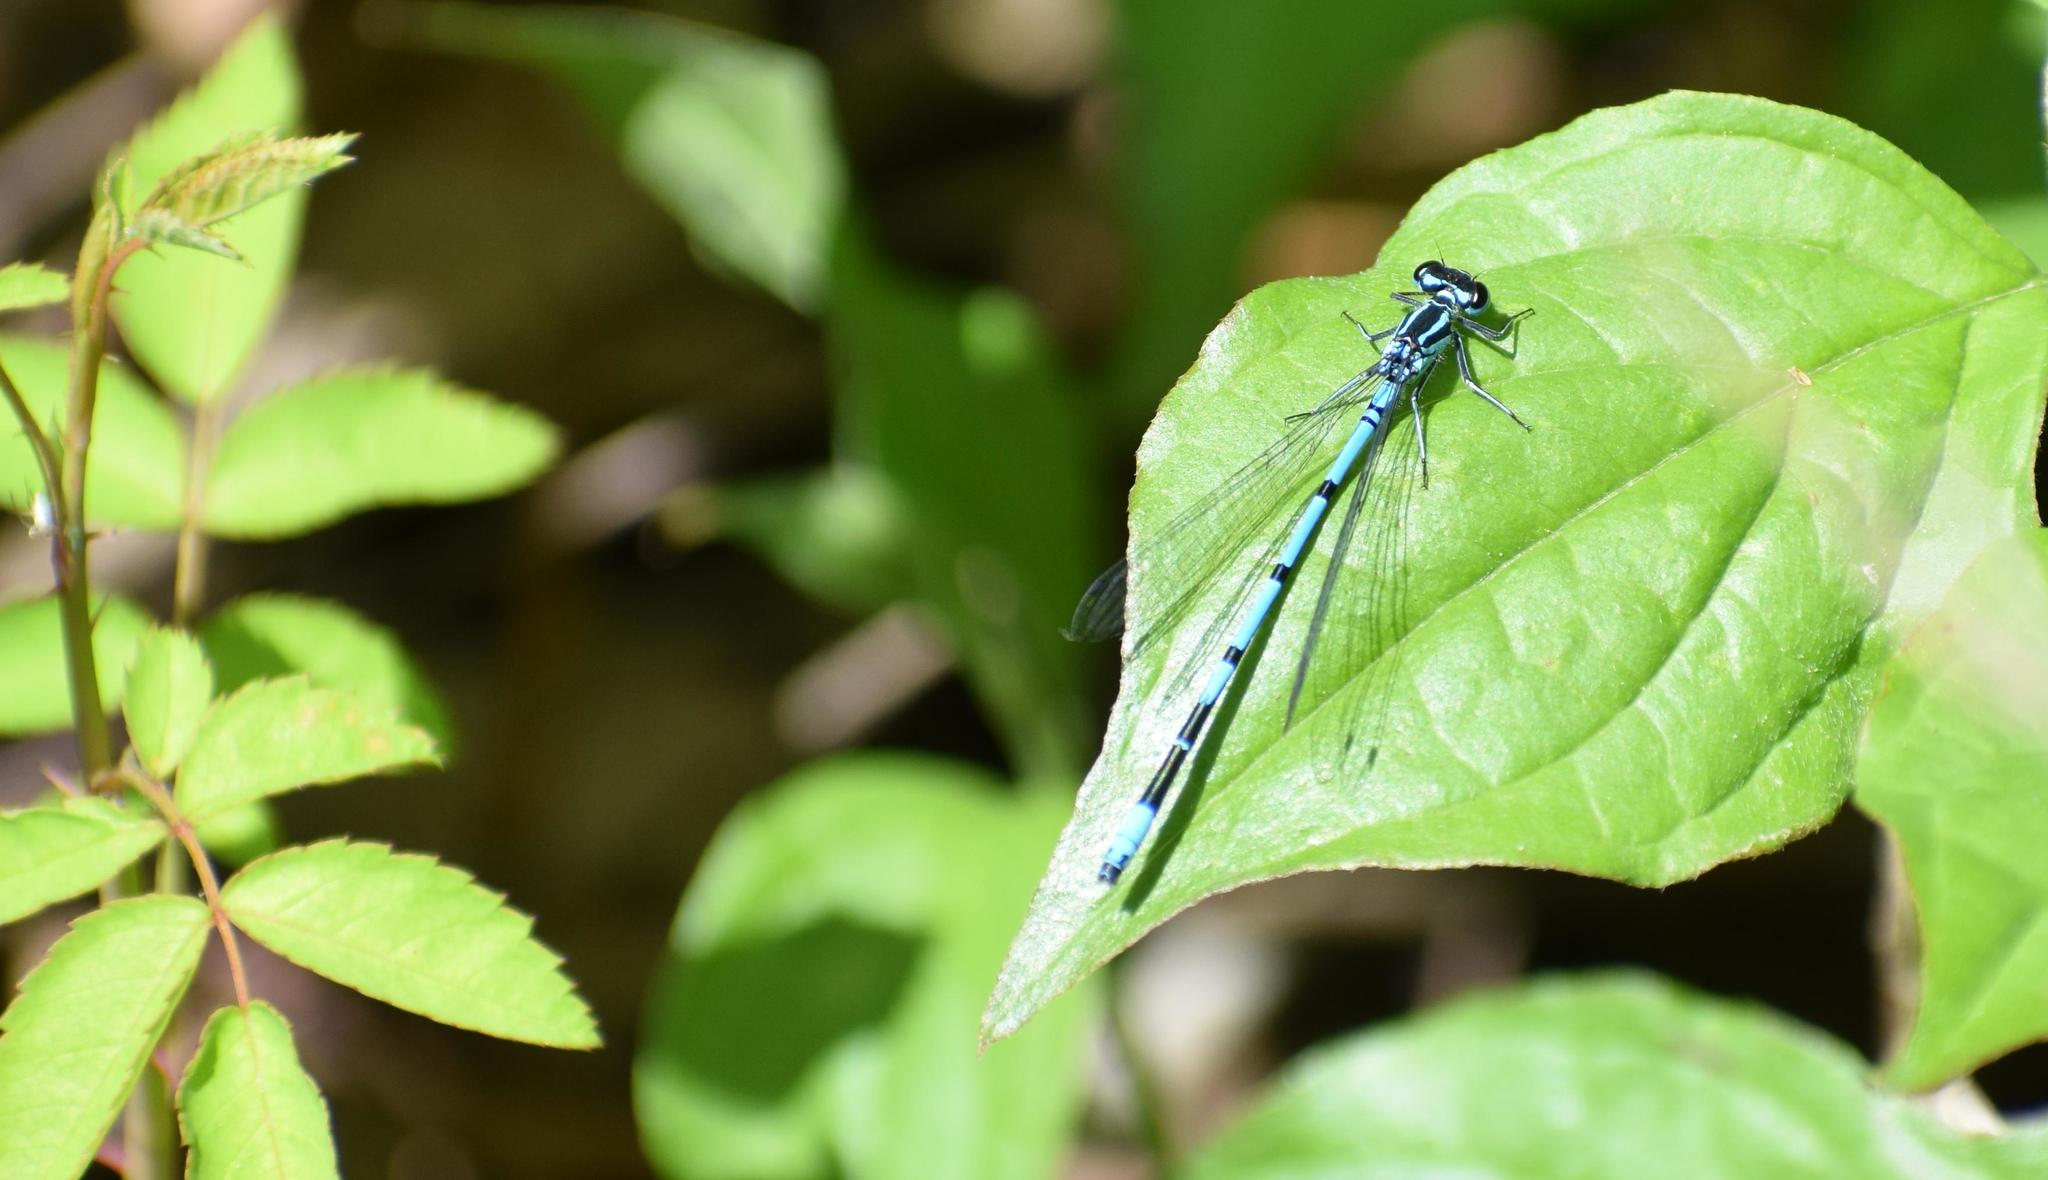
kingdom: Animalia
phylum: Arthropoda
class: Insecta
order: Odonata
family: Coenagrionidae
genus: Coenagrion
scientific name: Coenagrion puella
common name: Azure damselfly
